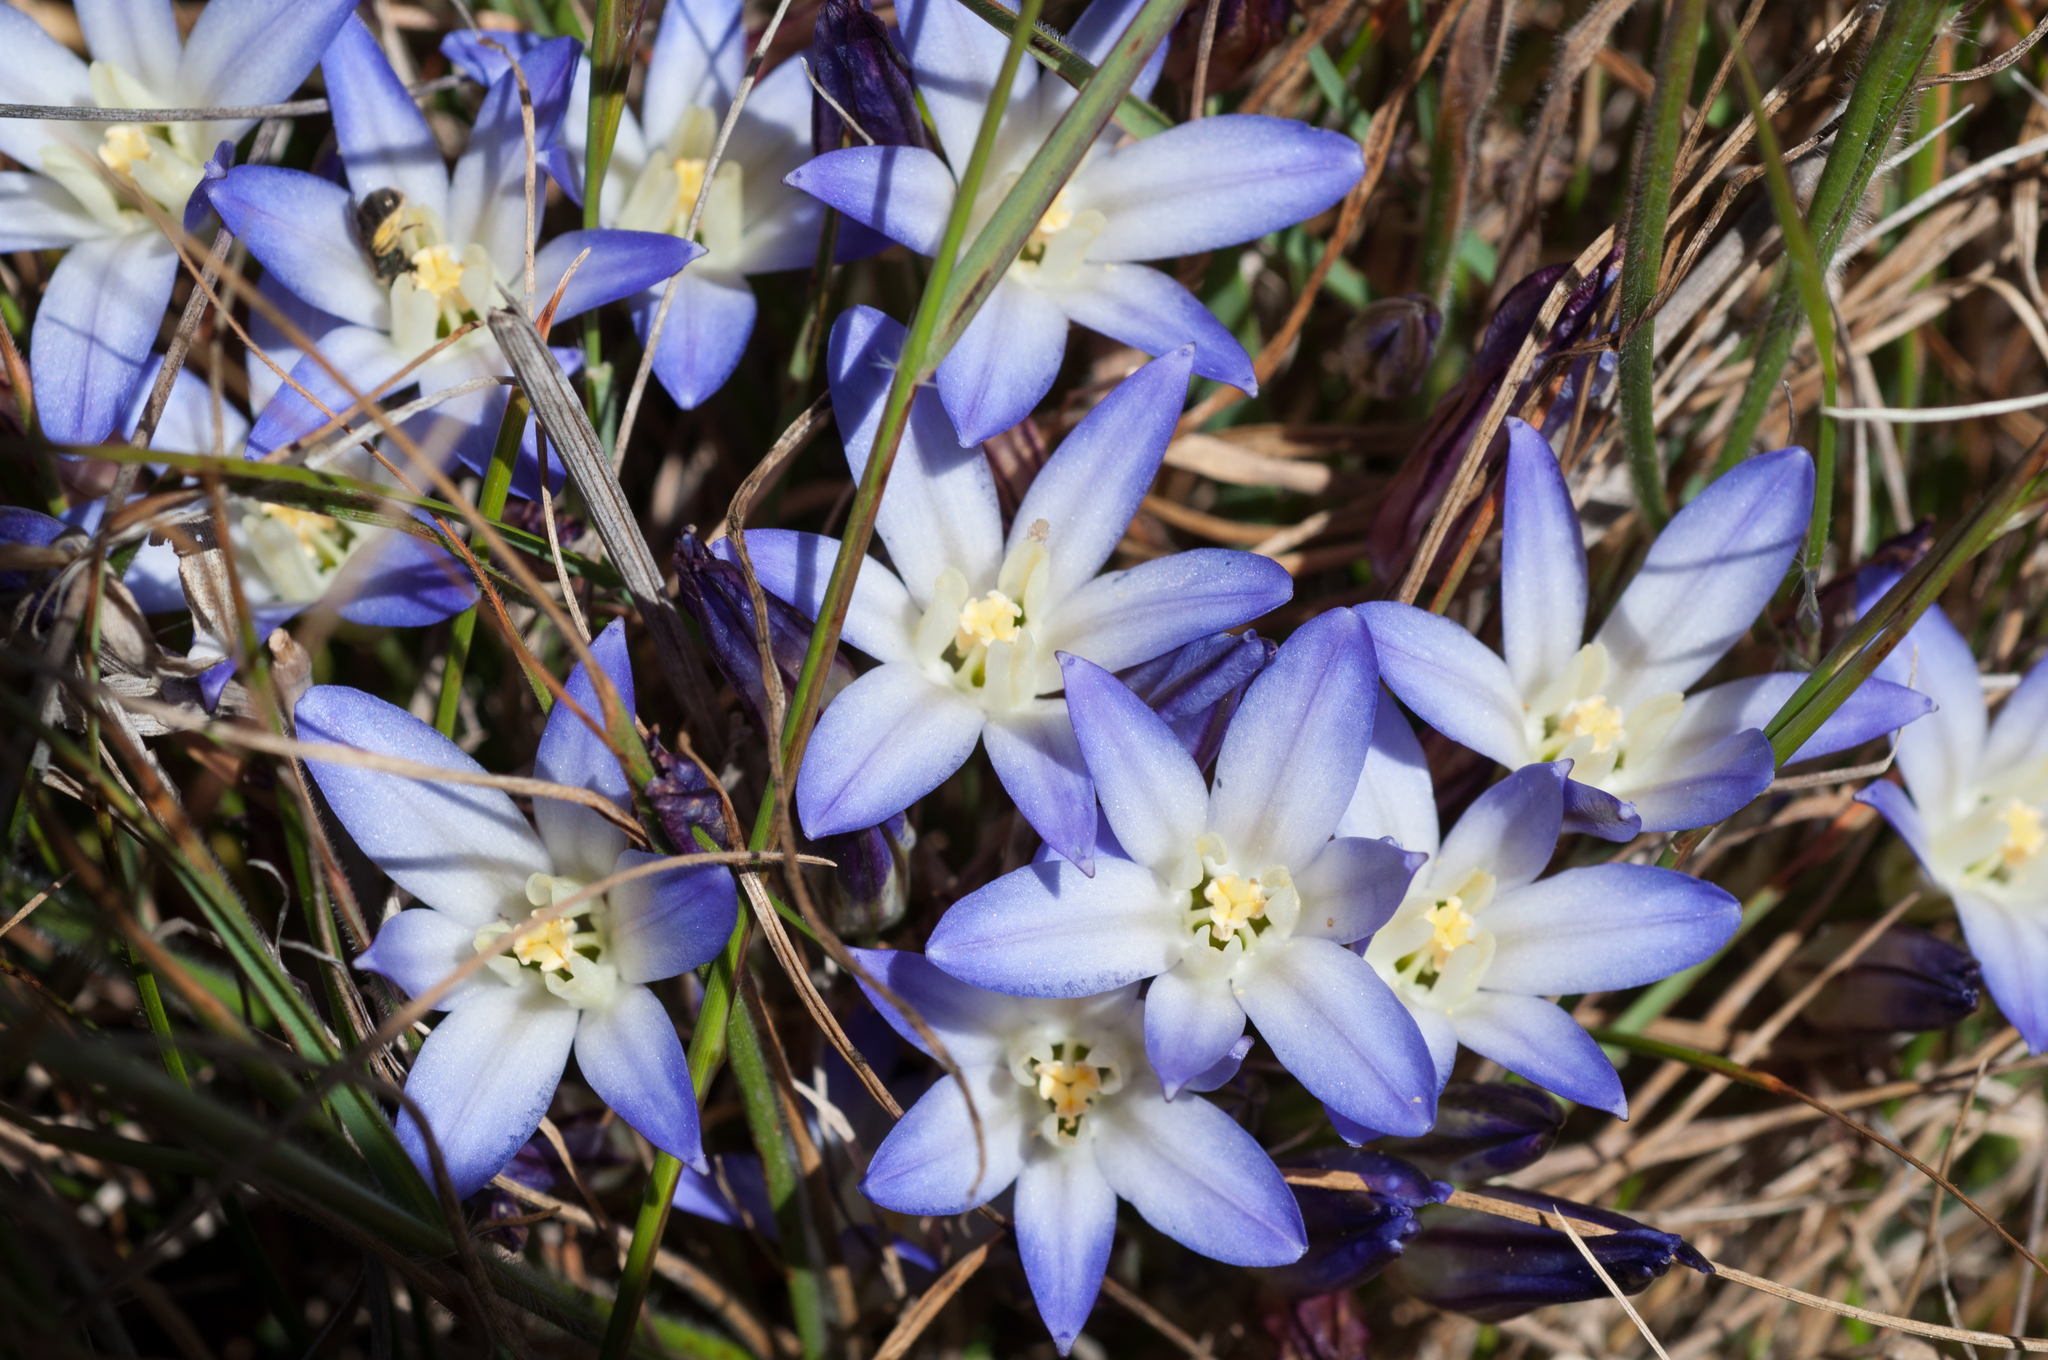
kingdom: Plantae
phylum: Tracheophyta
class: Liliopsida
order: Asparagales
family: Asparagaceae
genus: Brodiaea
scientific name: Brodiaea terrestris
